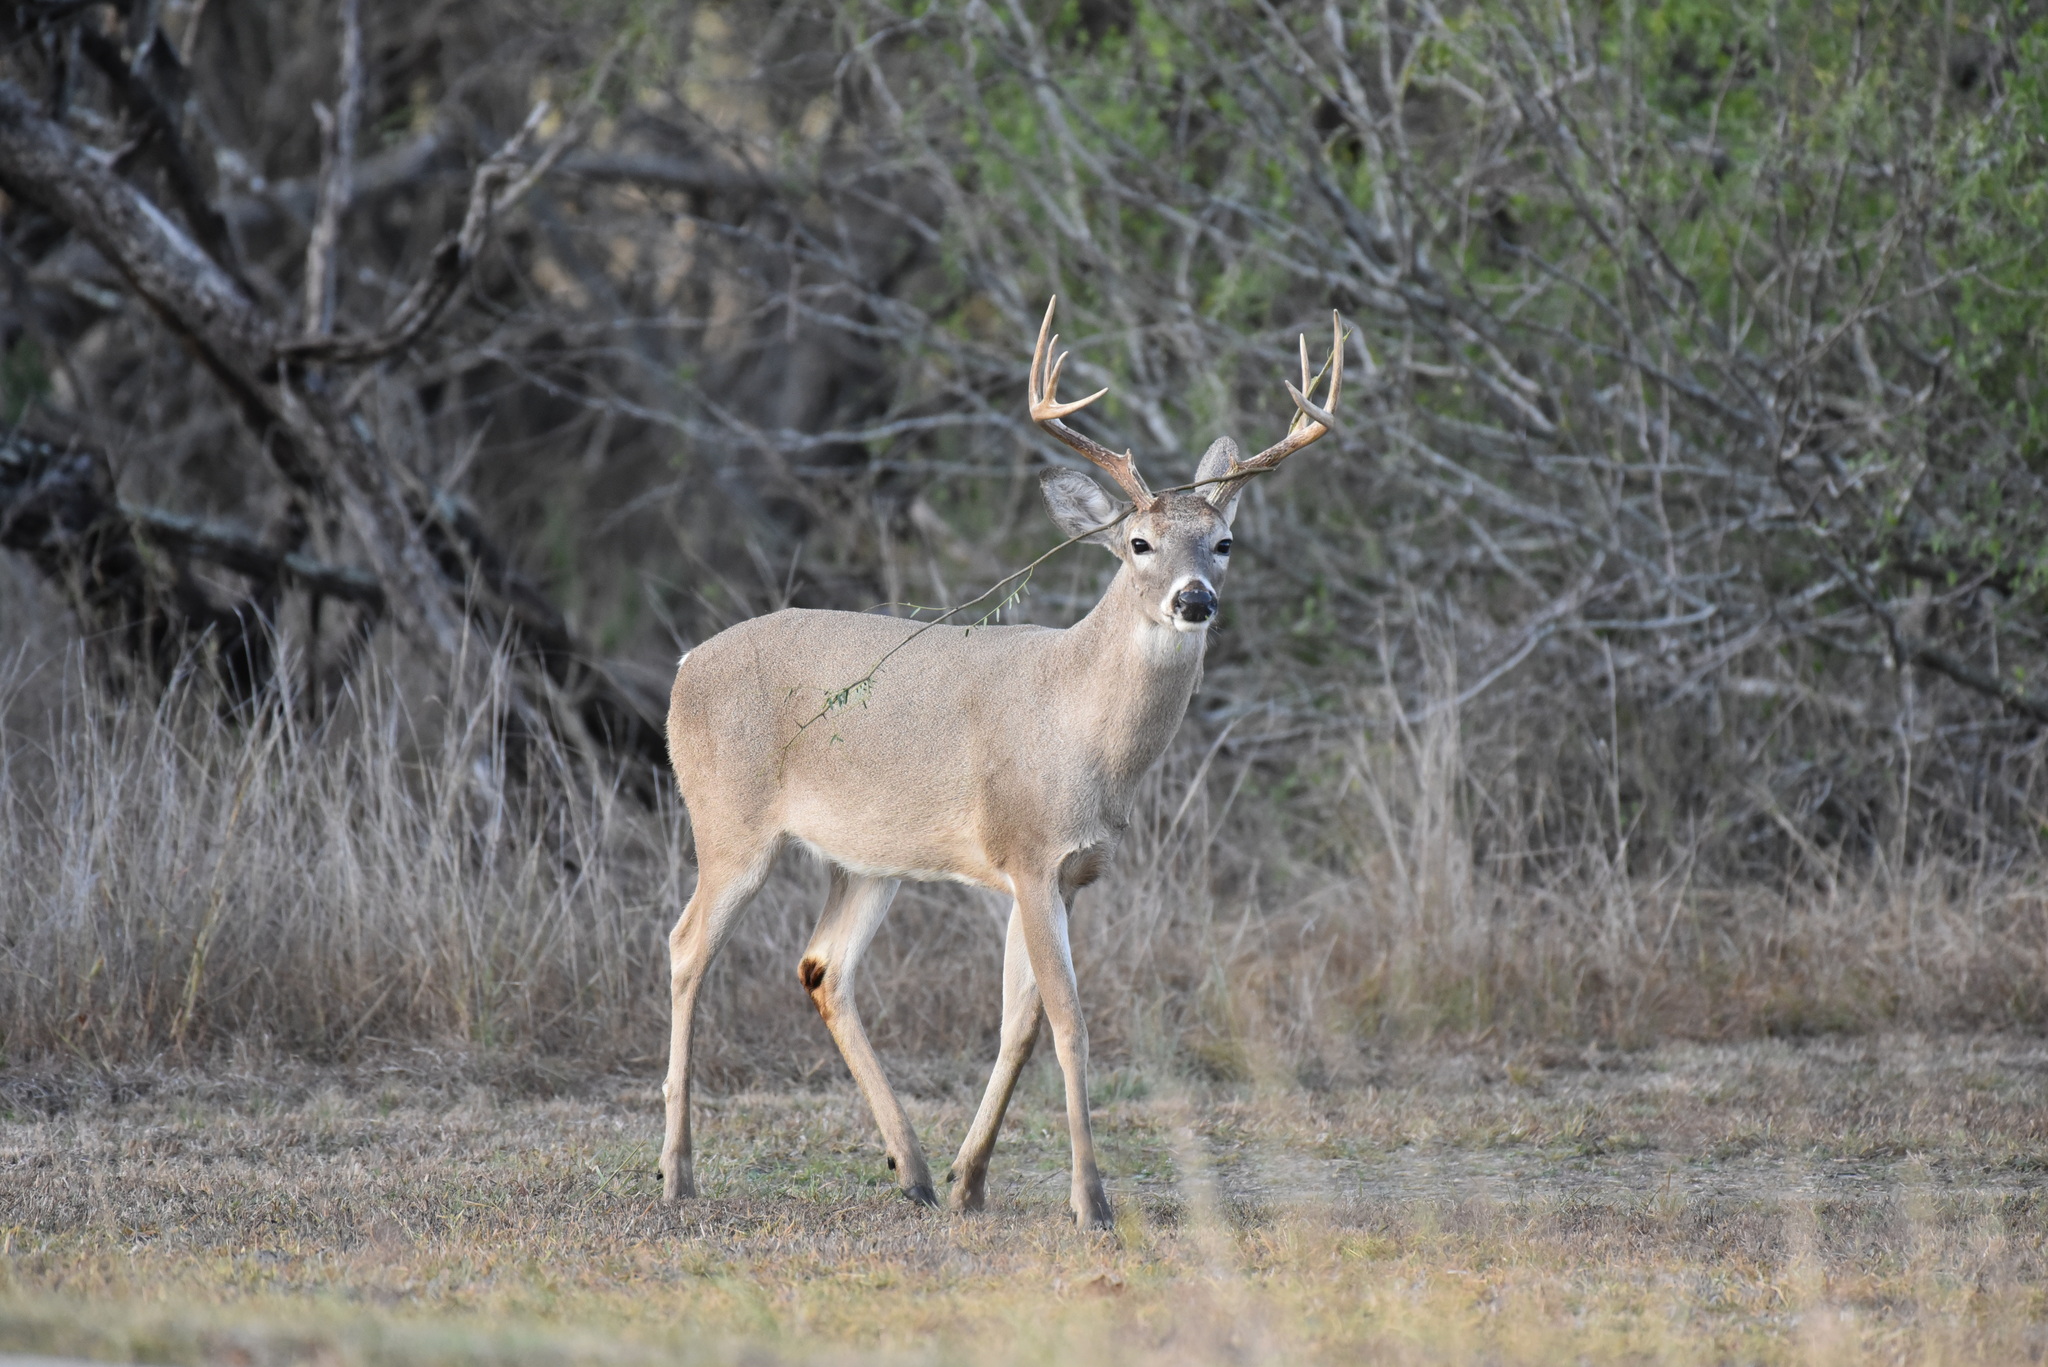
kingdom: Animalia
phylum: Chordata
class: Mammalia
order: Artiodactyla
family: Cervidae
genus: Odocoileus
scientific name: Odocoileus virginianus
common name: White-tailed deer
